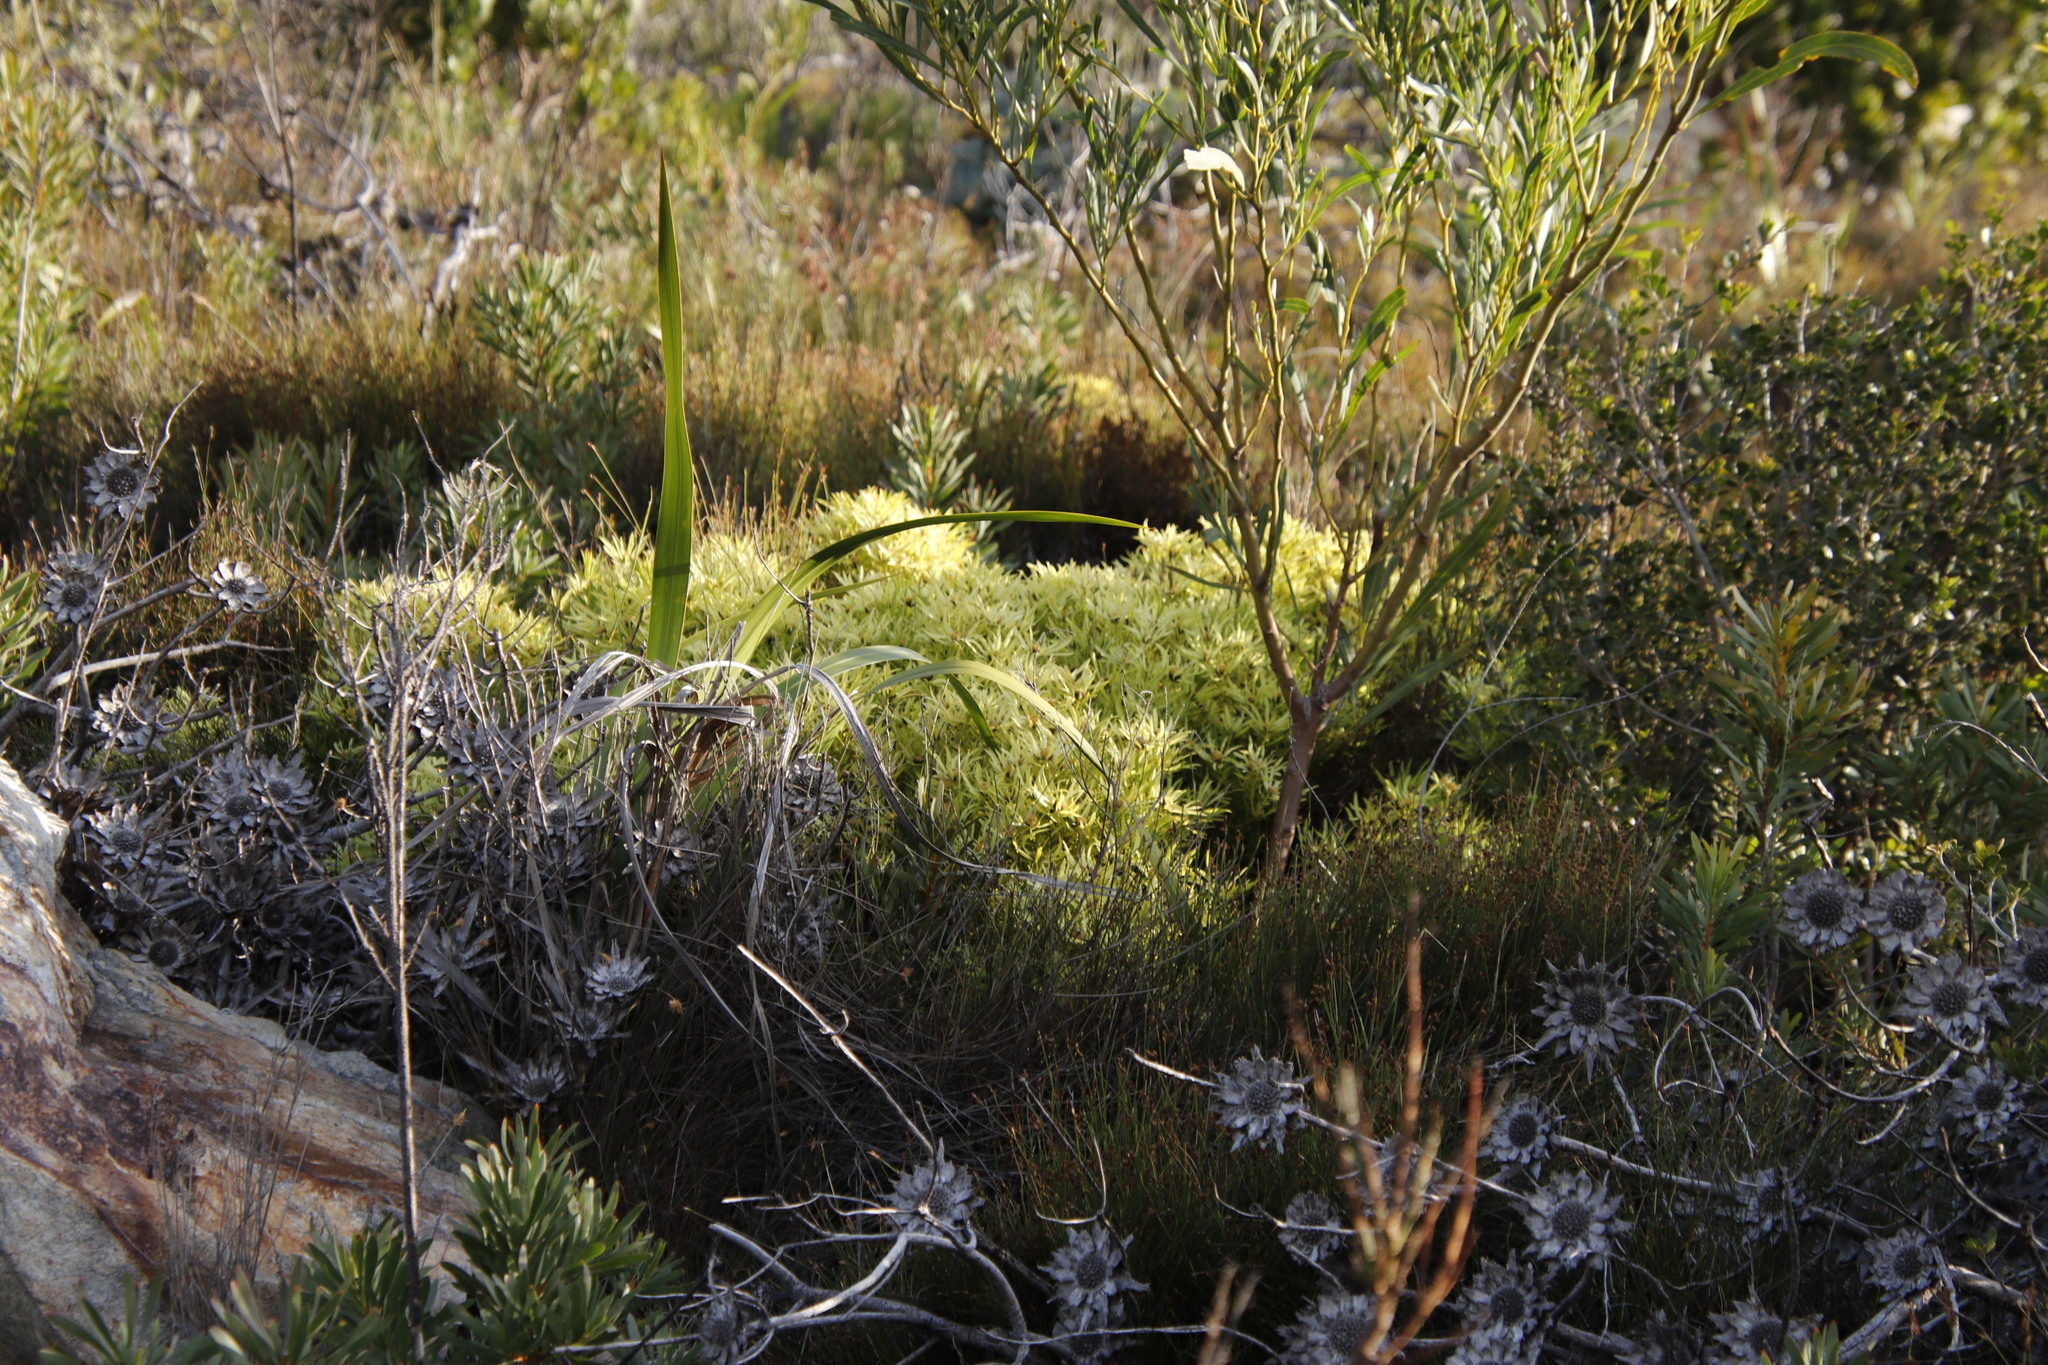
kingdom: Plantae
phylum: Tracheophyta
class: Magnoliopsida
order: Proteales
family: Proteaceae
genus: Leucadendron
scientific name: Leucadendron salignum
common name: Common sunshine conebush
